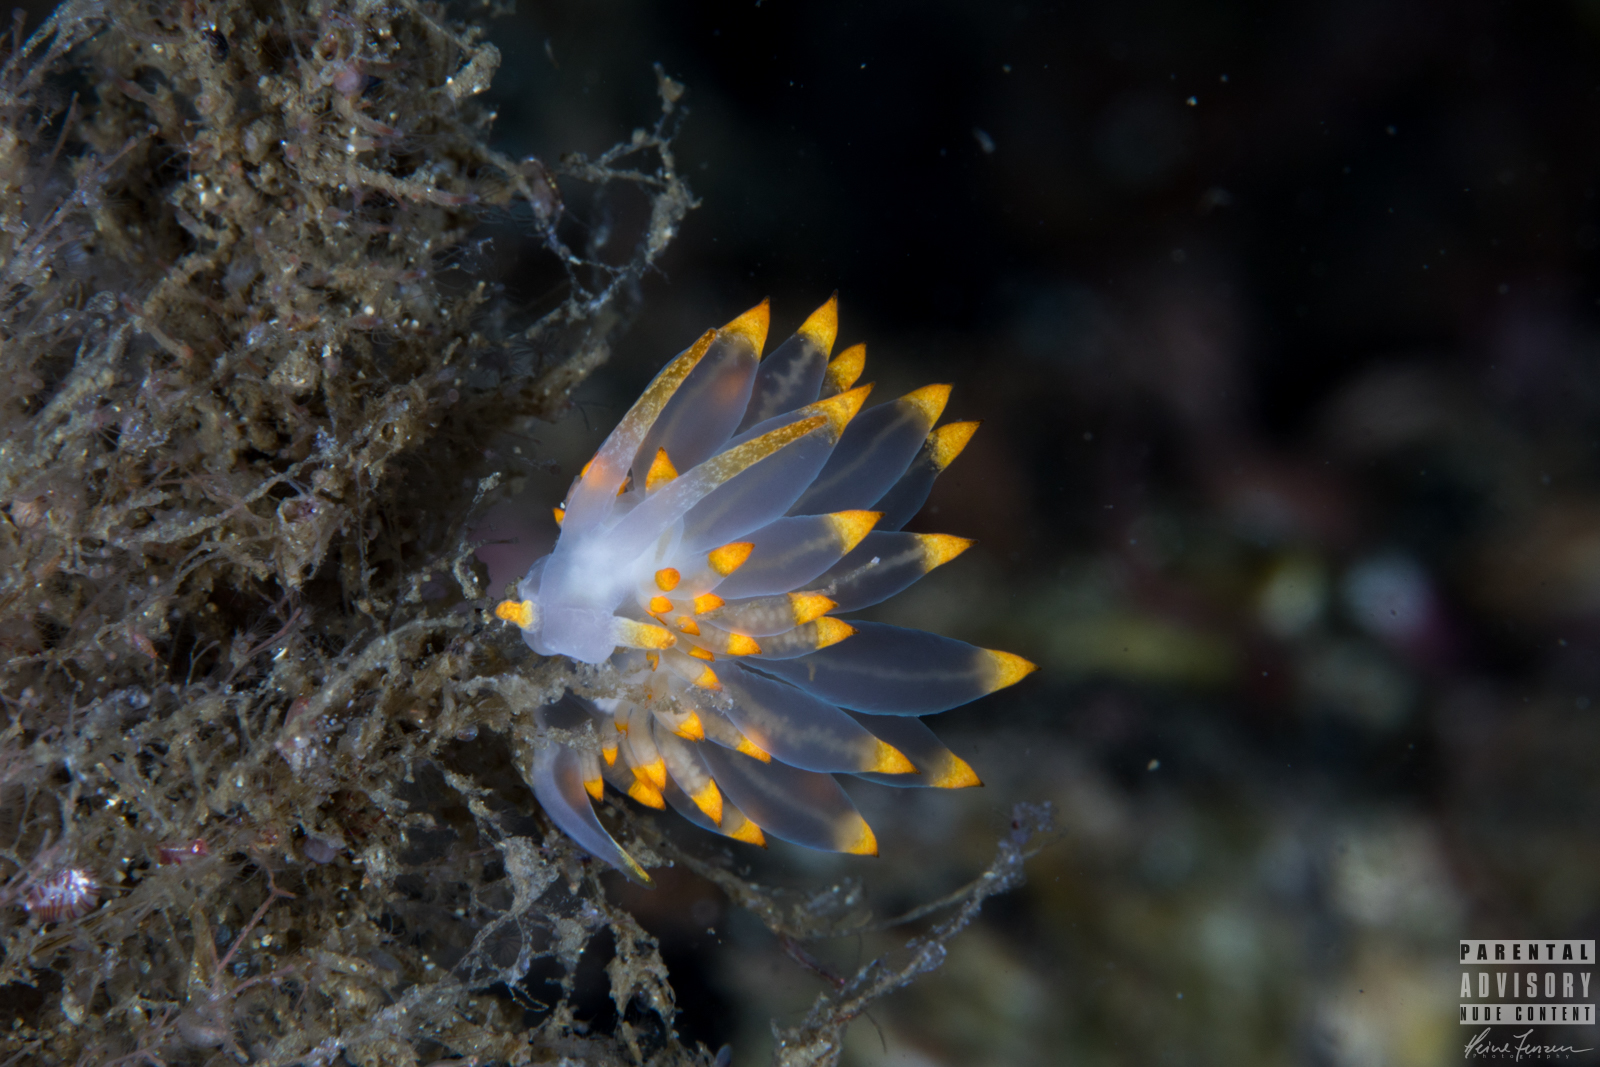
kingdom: Animalia
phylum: Mollusca
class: Gastropoda
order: Nudibranchia
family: Eubranchidae
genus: Amphorina
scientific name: Amphorina farrani
